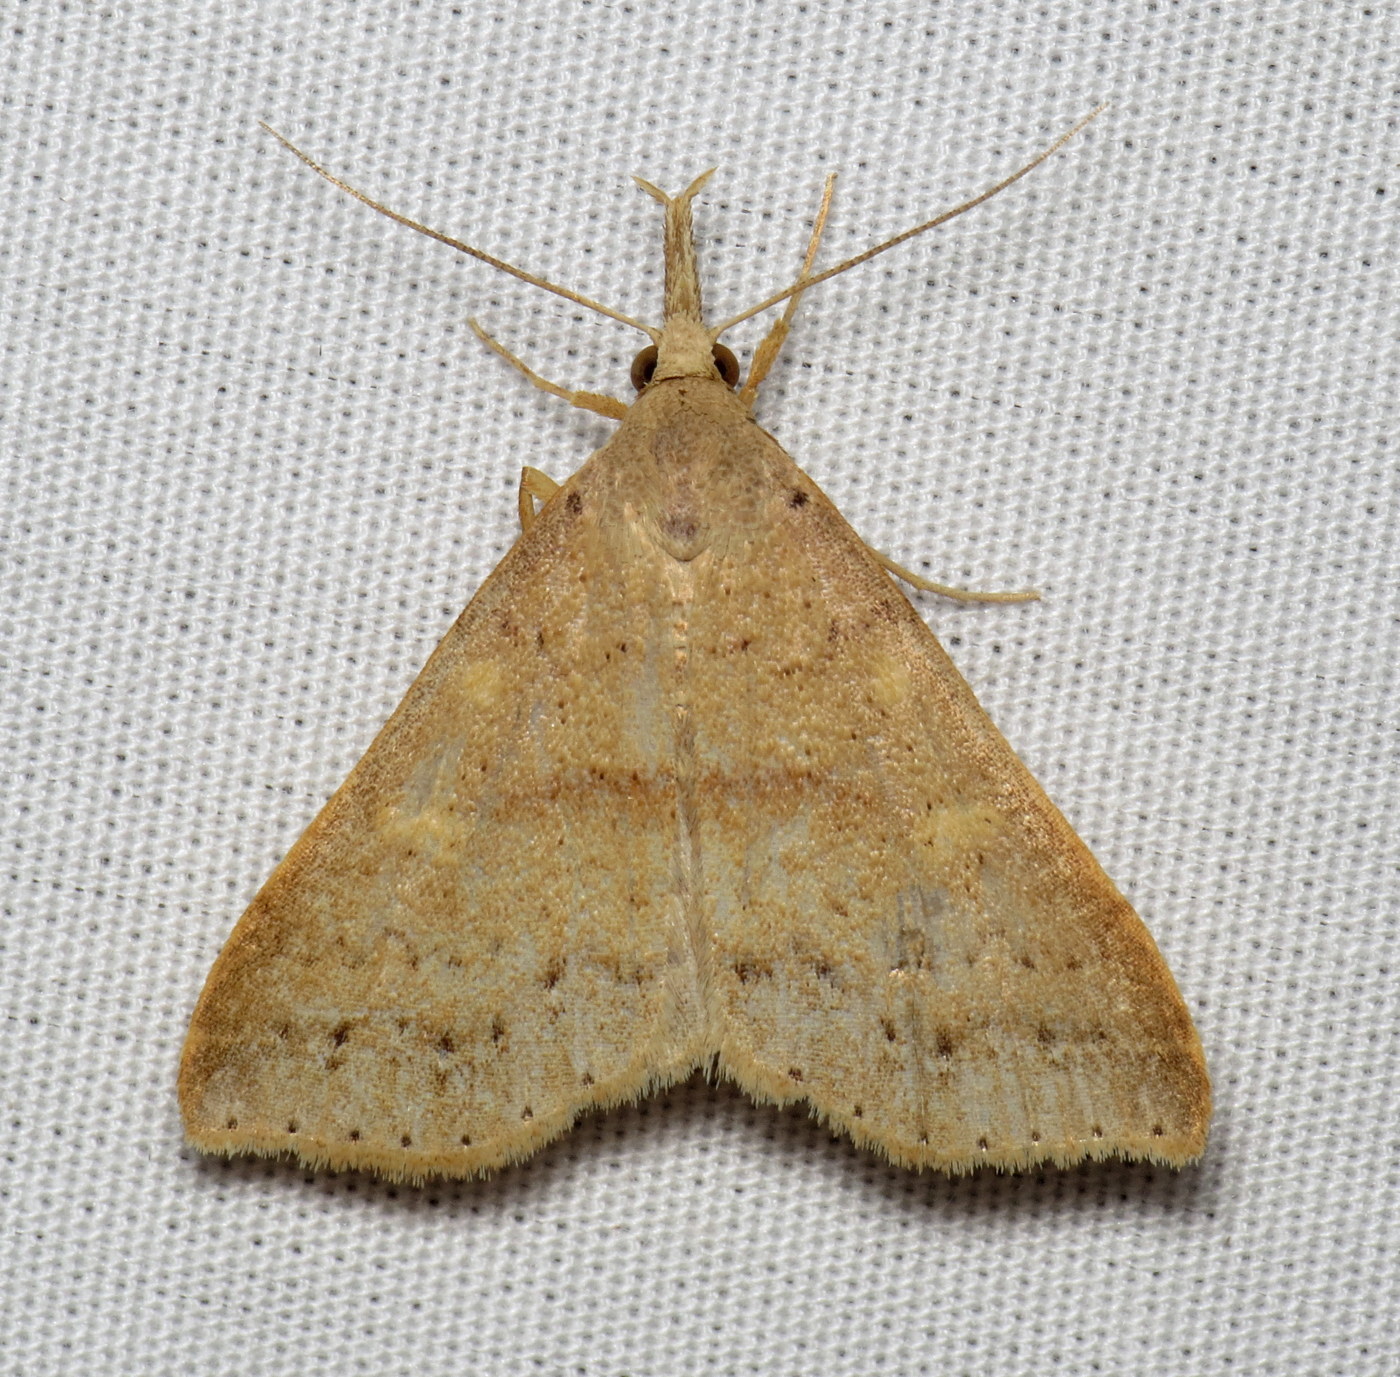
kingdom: Animalia
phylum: Arthropoda
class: Insecta
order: Lepidoptera
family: Erebidae
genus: Renia
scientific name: Renia salusalis
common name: Dotted renia moth
